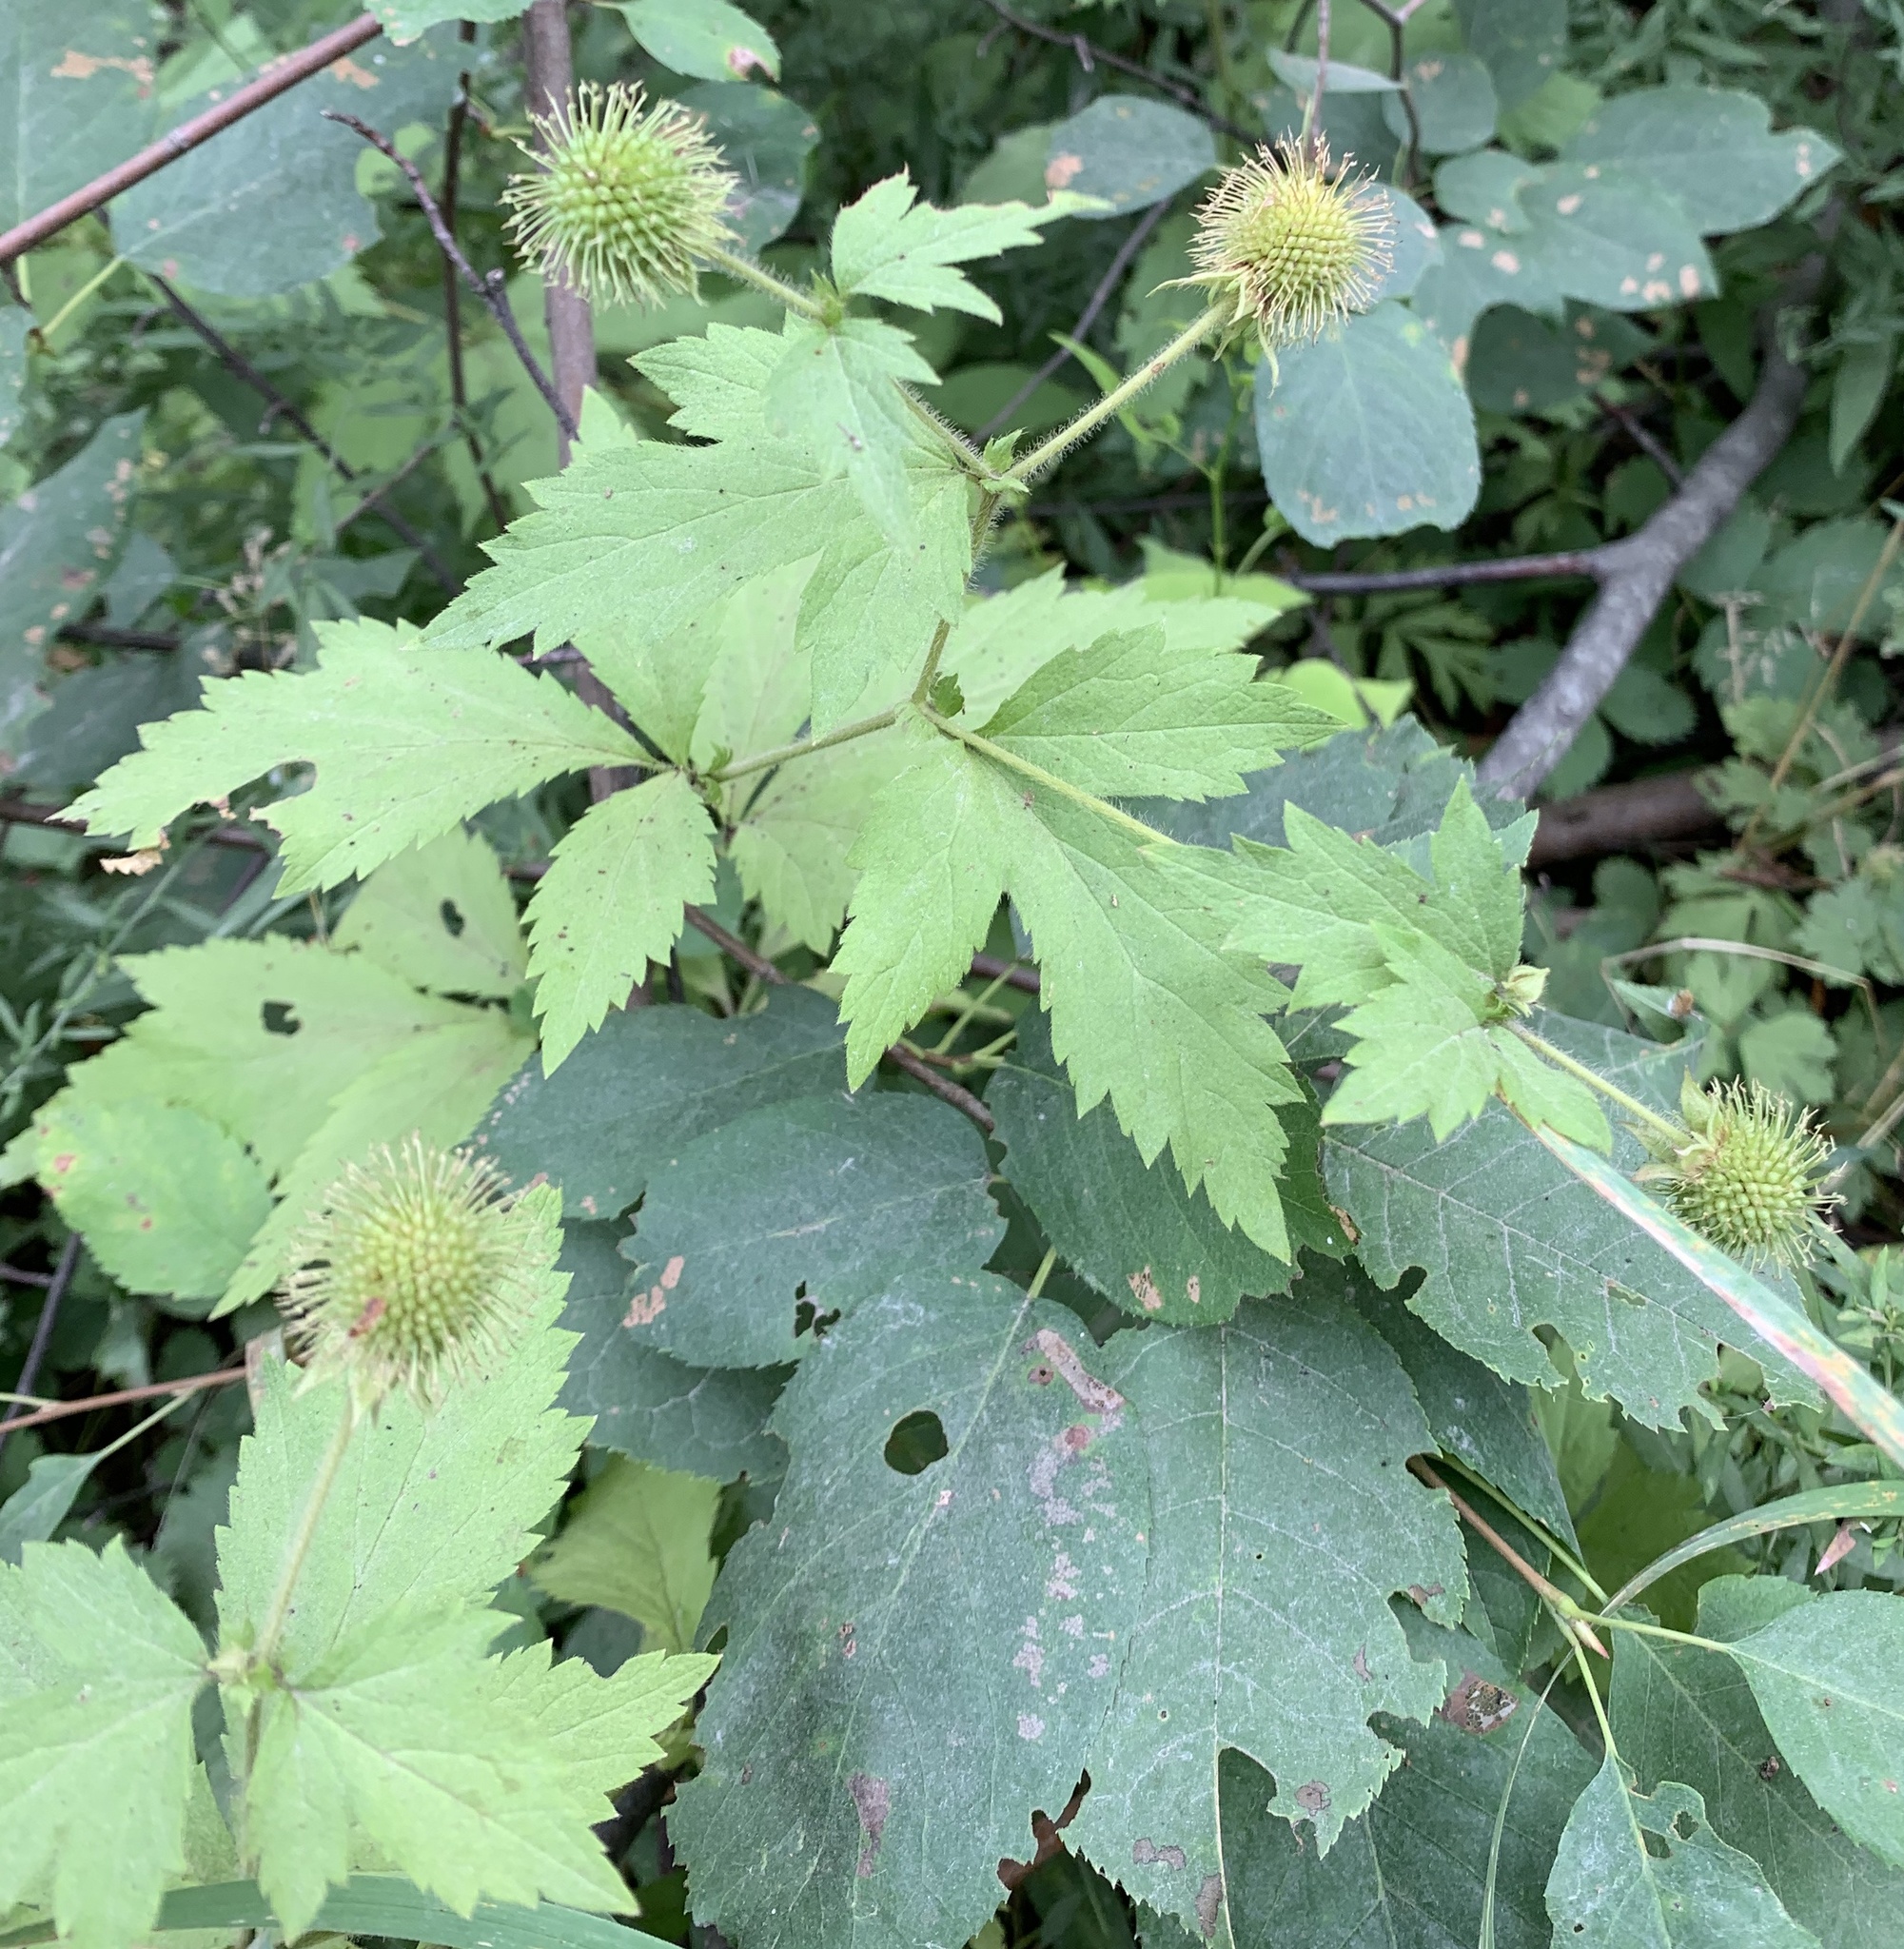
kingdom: Plantae
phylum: Tracheophyta
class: Magnoliopsida
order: Rosales
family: Rosaceae
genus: Geum
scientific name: Geum laciniatum
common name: Rough avens
